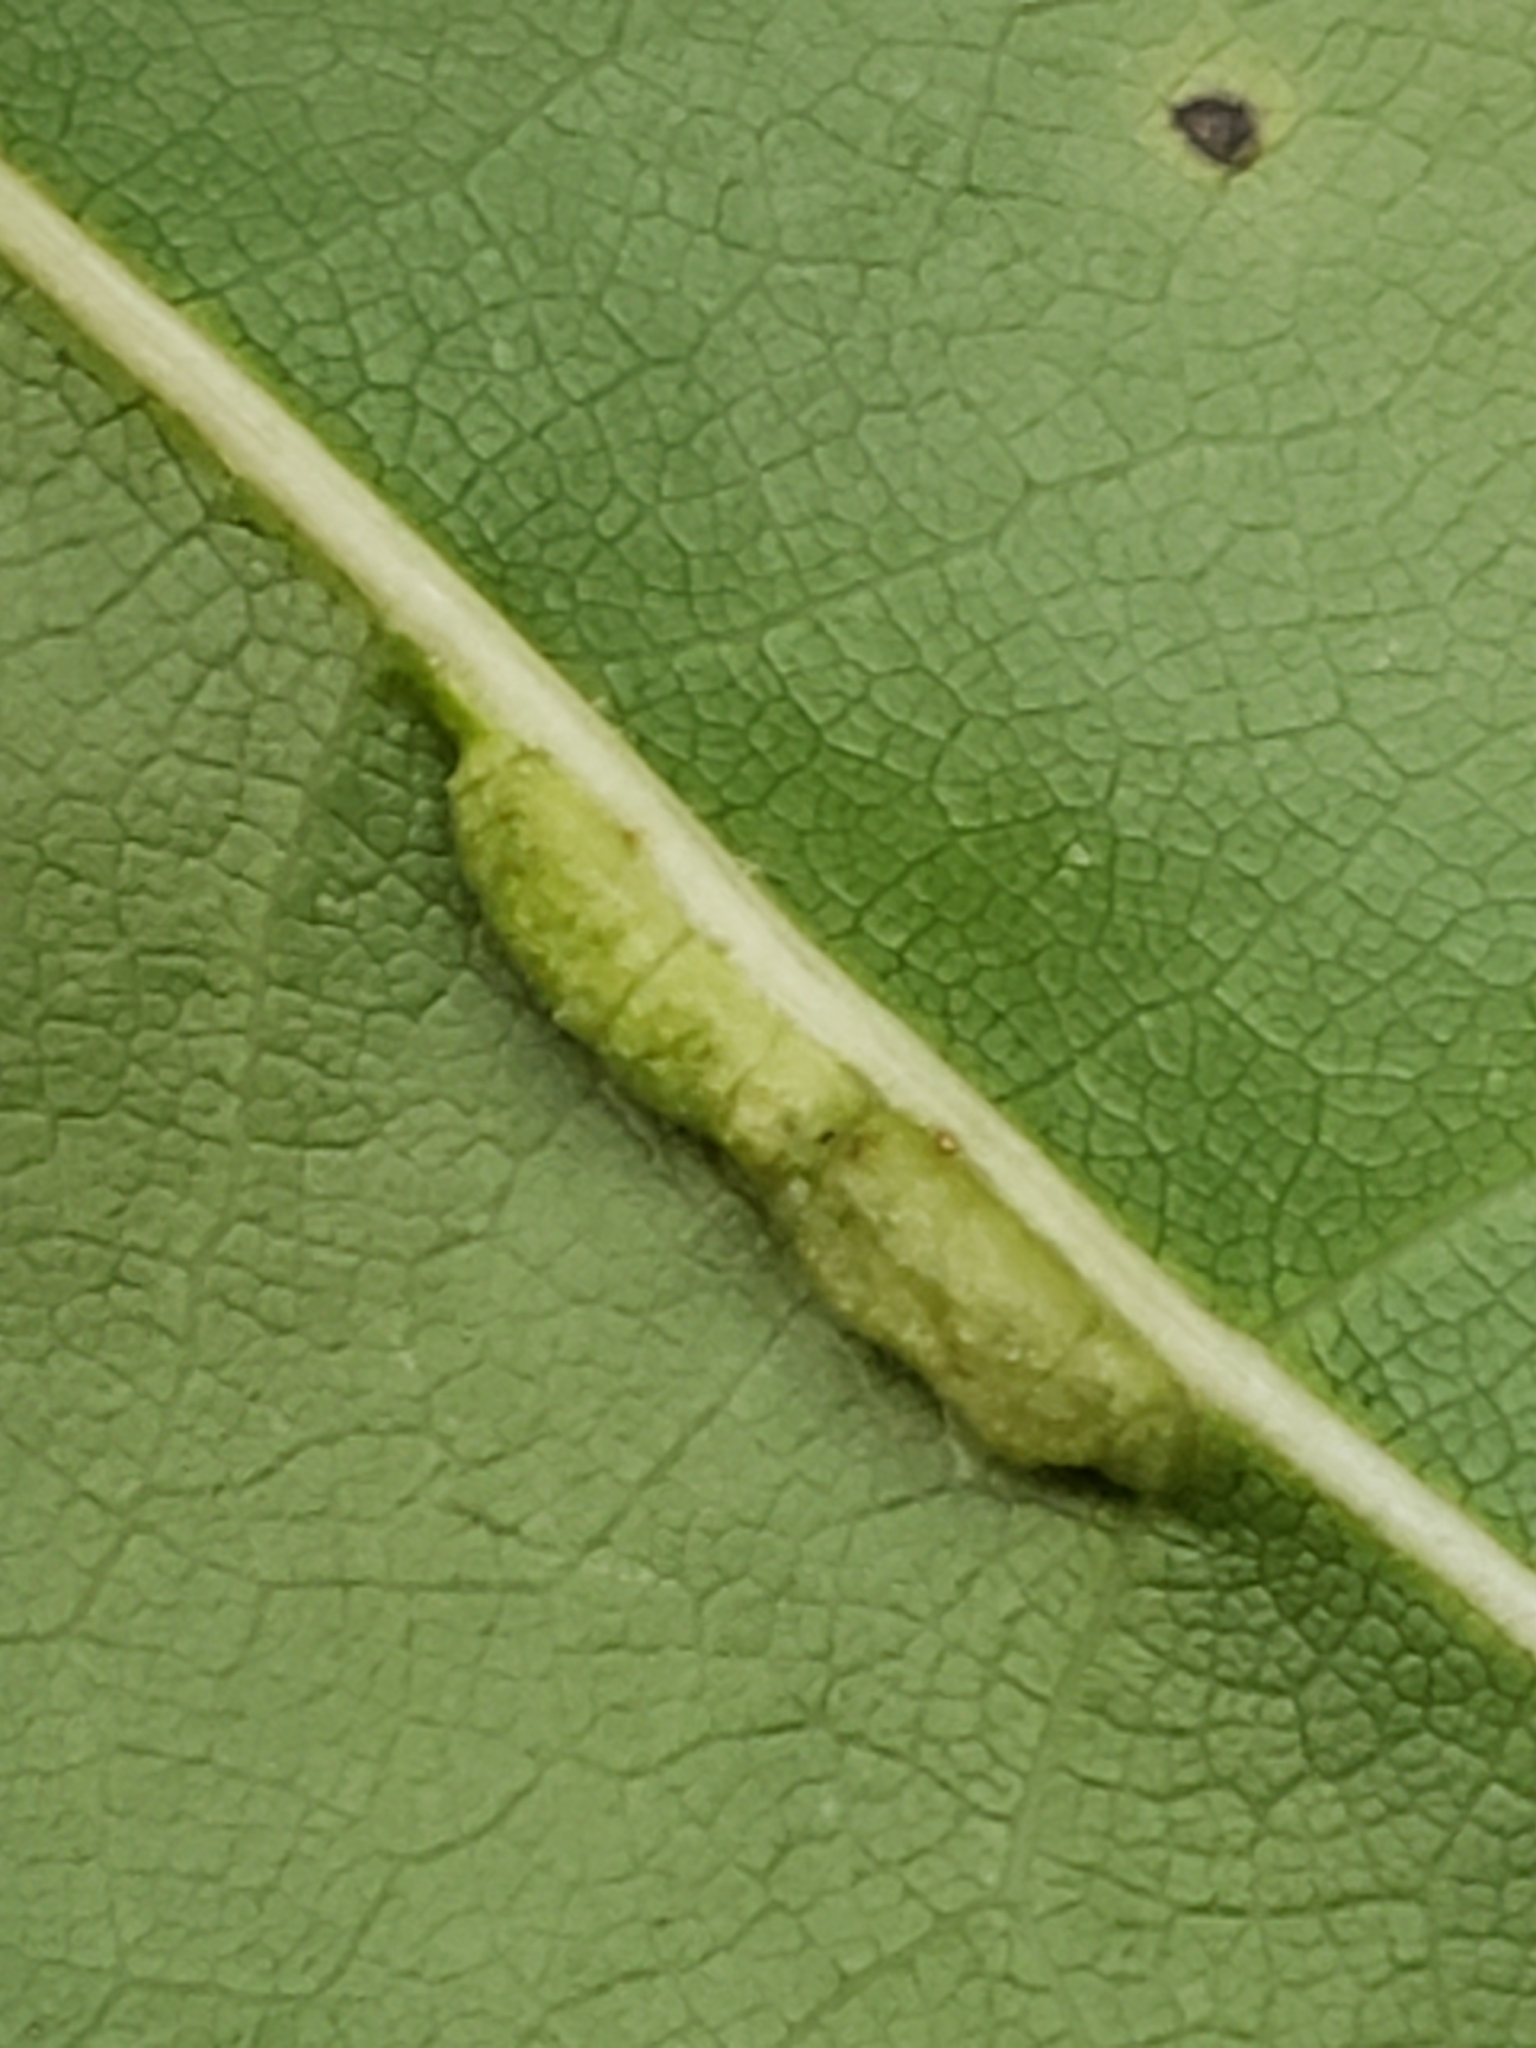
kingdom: Animalia
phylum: Arthropoda
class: Insecta
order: Diptera
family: Cecidomyiidae
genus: Macrodiplosis
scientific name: Macrodiplosis q-orucum
